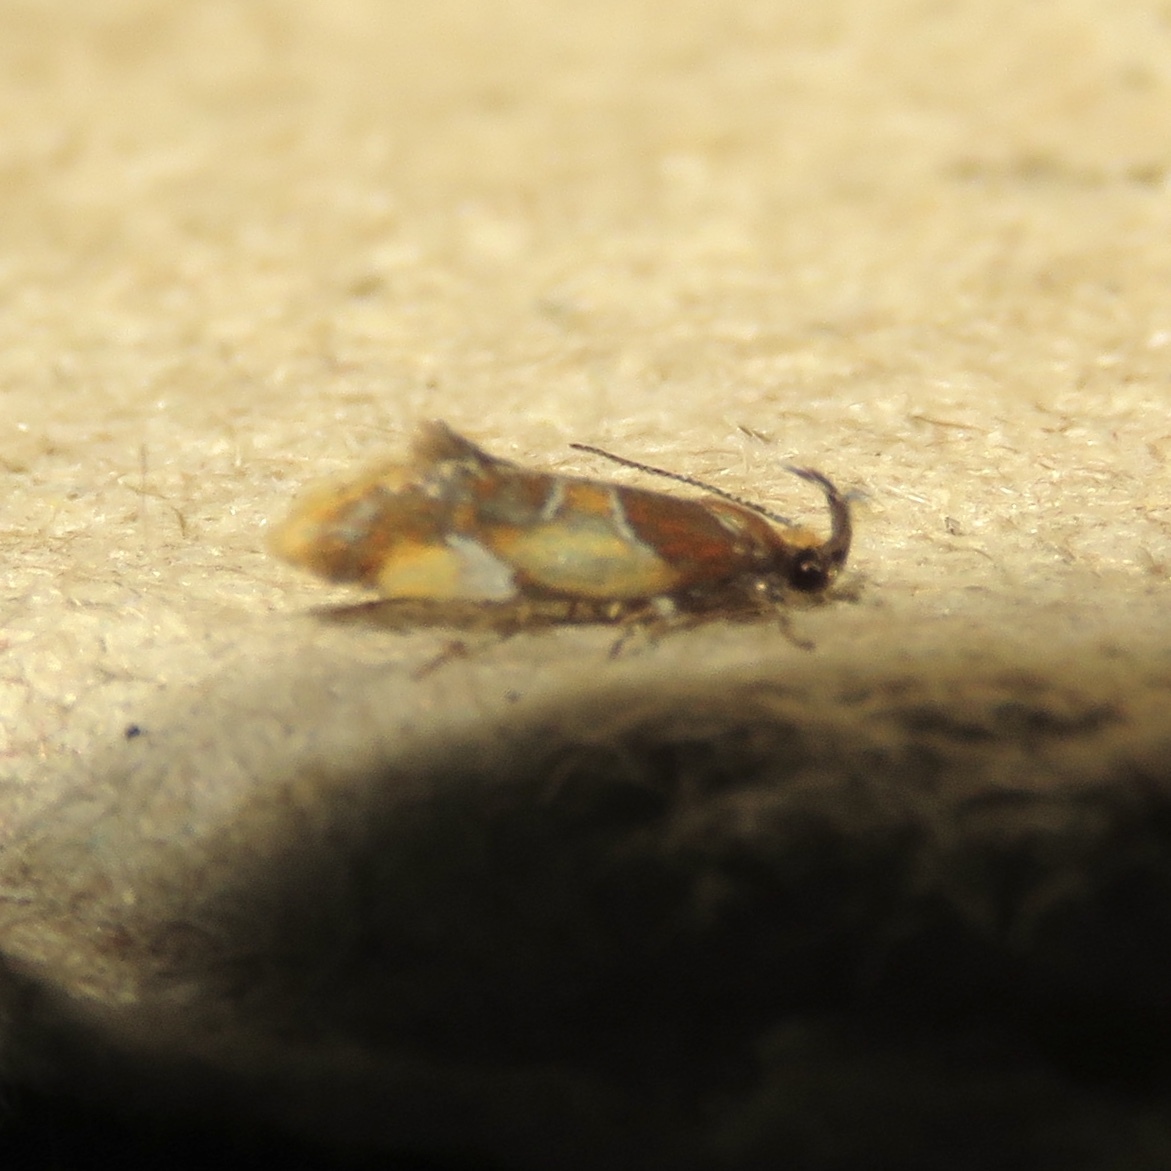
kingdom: Animalia
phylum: Arthropoda
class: Insecta
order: Lepidoptera
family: Oecophoridae
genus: Callima
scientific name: Callima argenticinctella
